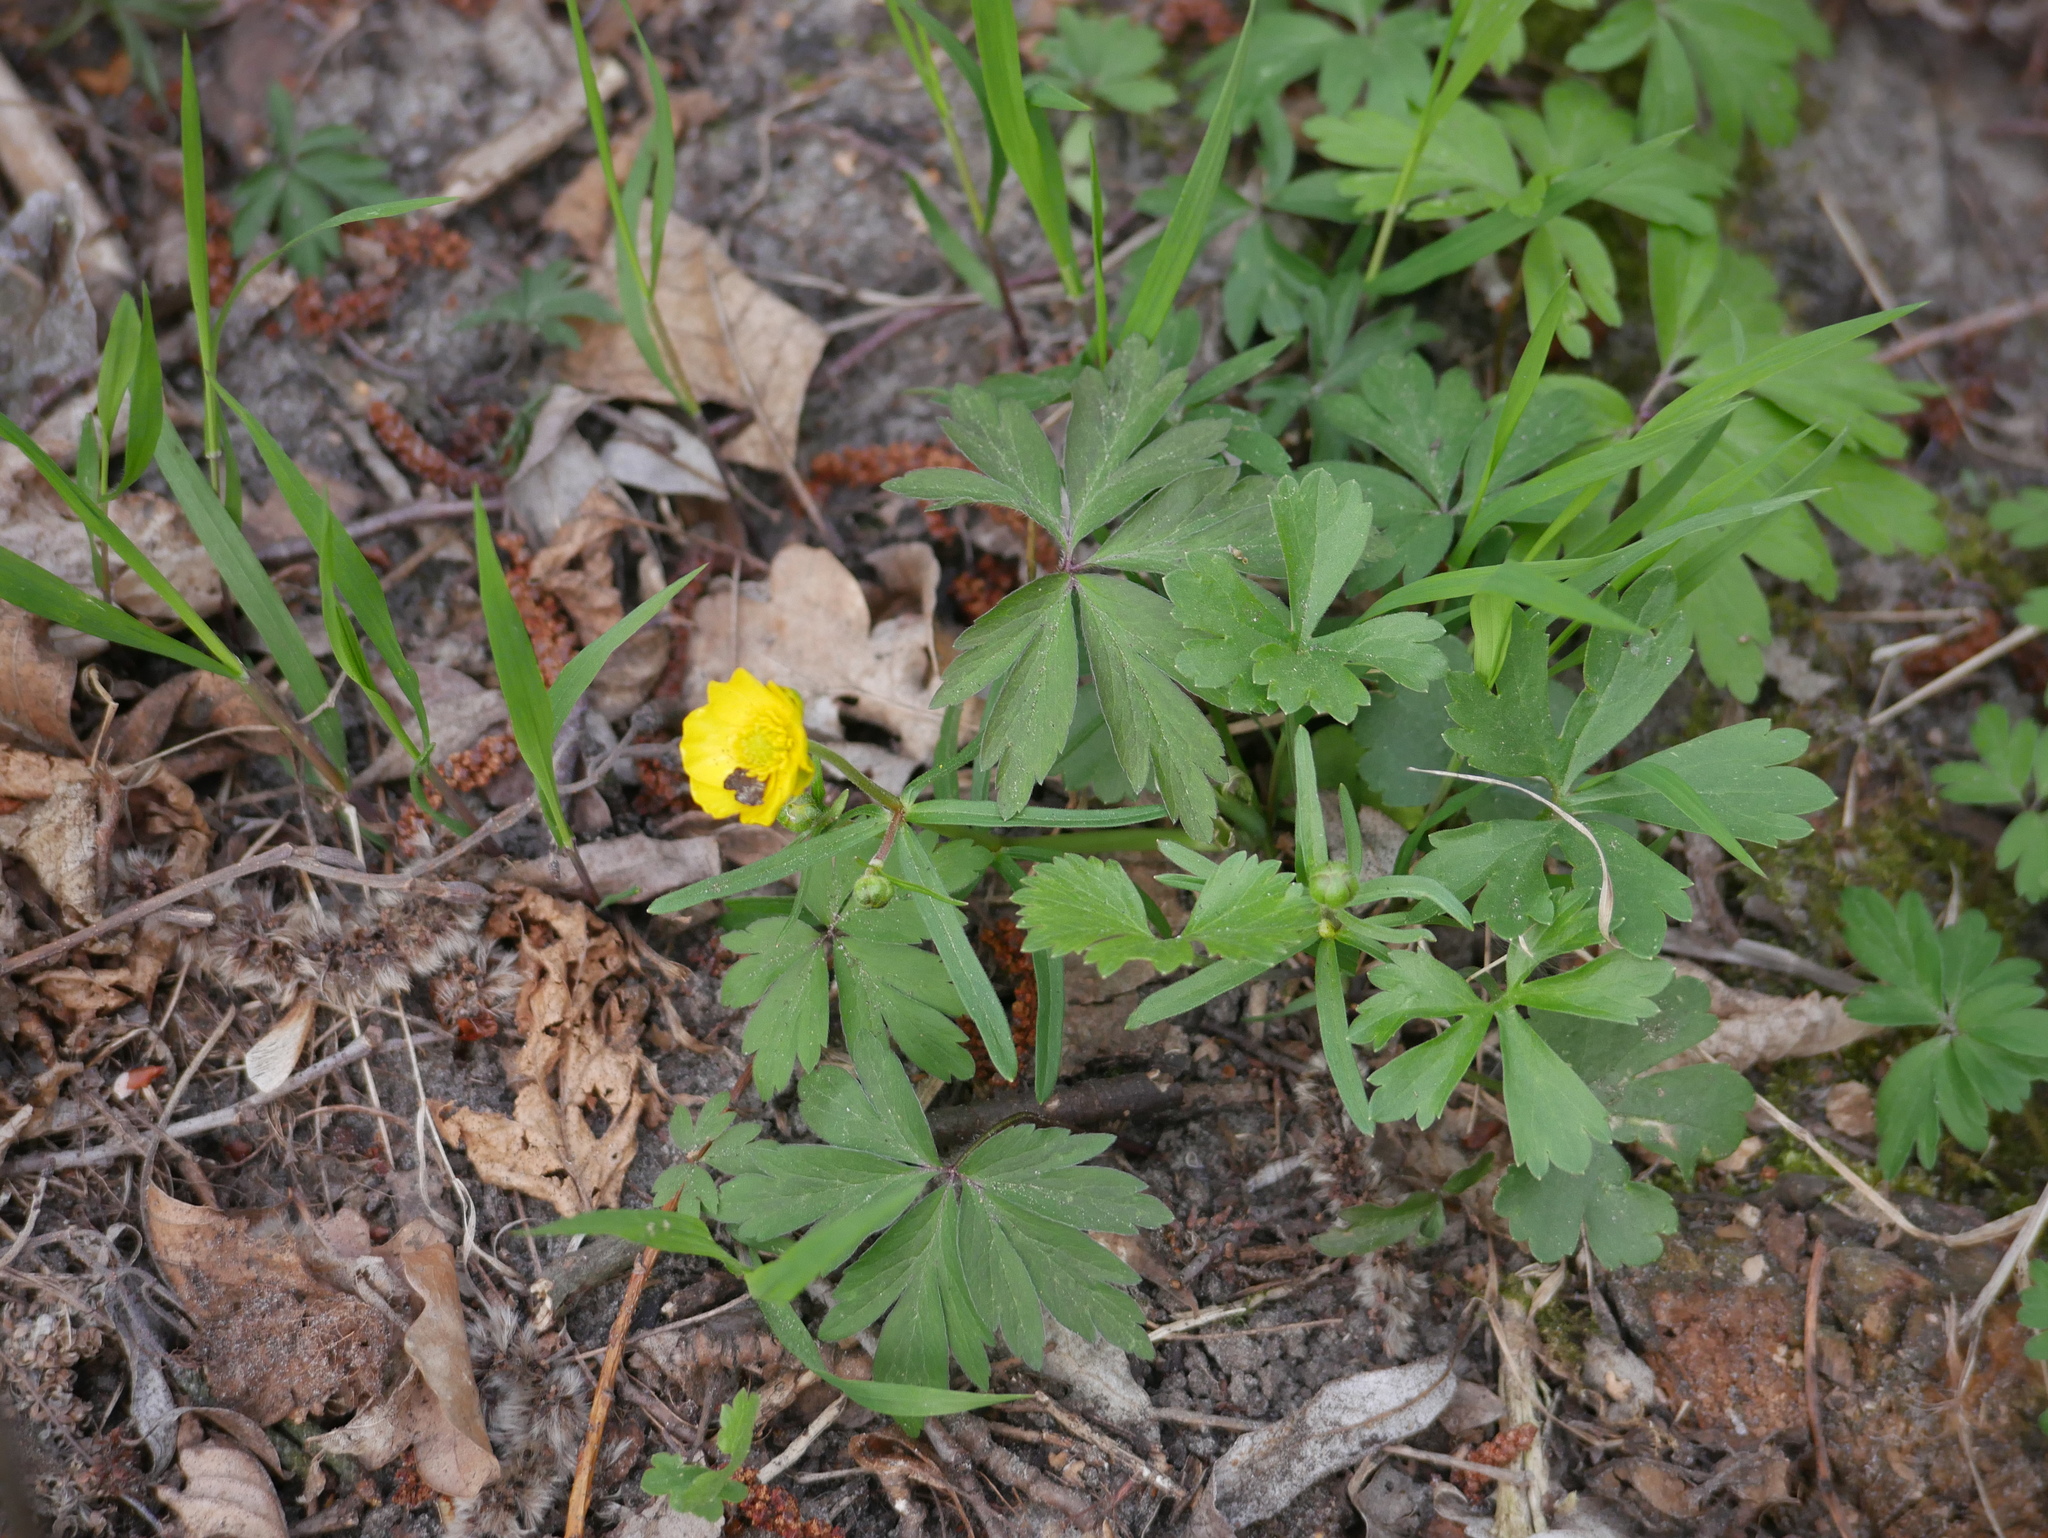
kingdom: Plantae
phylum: Tracheophyta
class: Magnoliopsida
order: Ranunculales
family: Ranunculaceae
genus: Ranunculus
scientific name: Ranunculus auricomus
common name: Goldilocks buttercup
